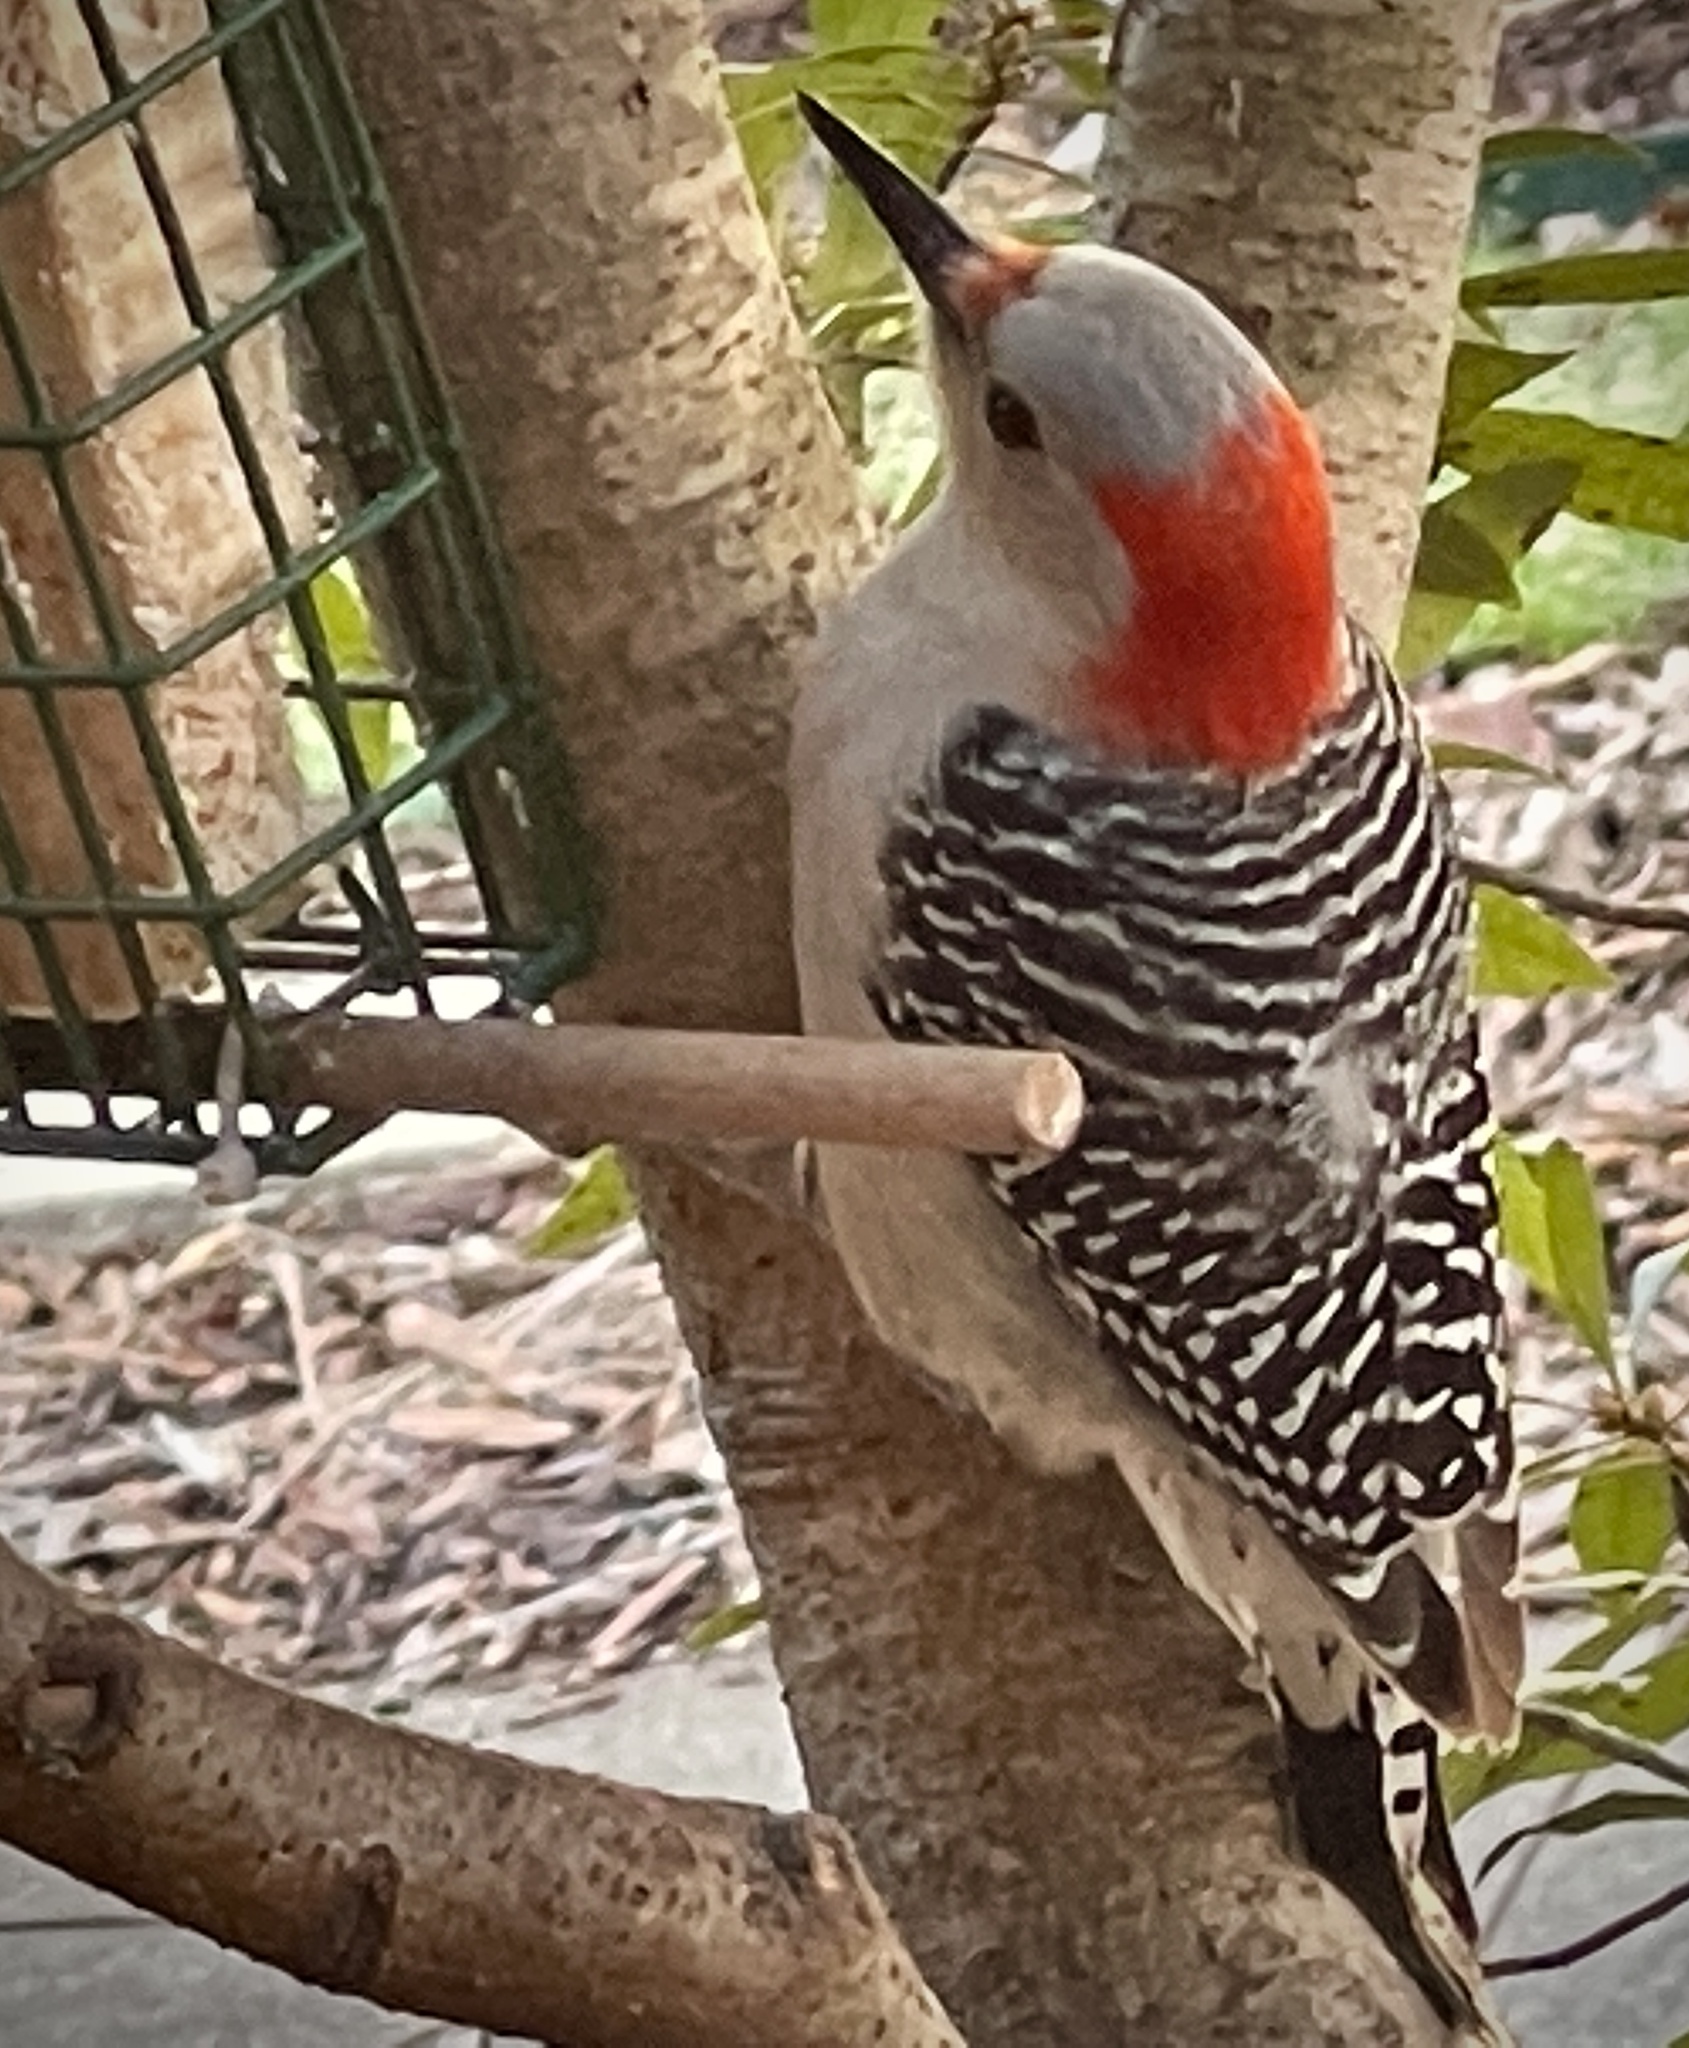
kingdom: Animalia
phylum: Chordata
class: Aves
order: Piciformes
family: Picidae
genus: Melanerpes
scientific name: Melanerpes carolinus
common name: Red-bellied woodpecker
